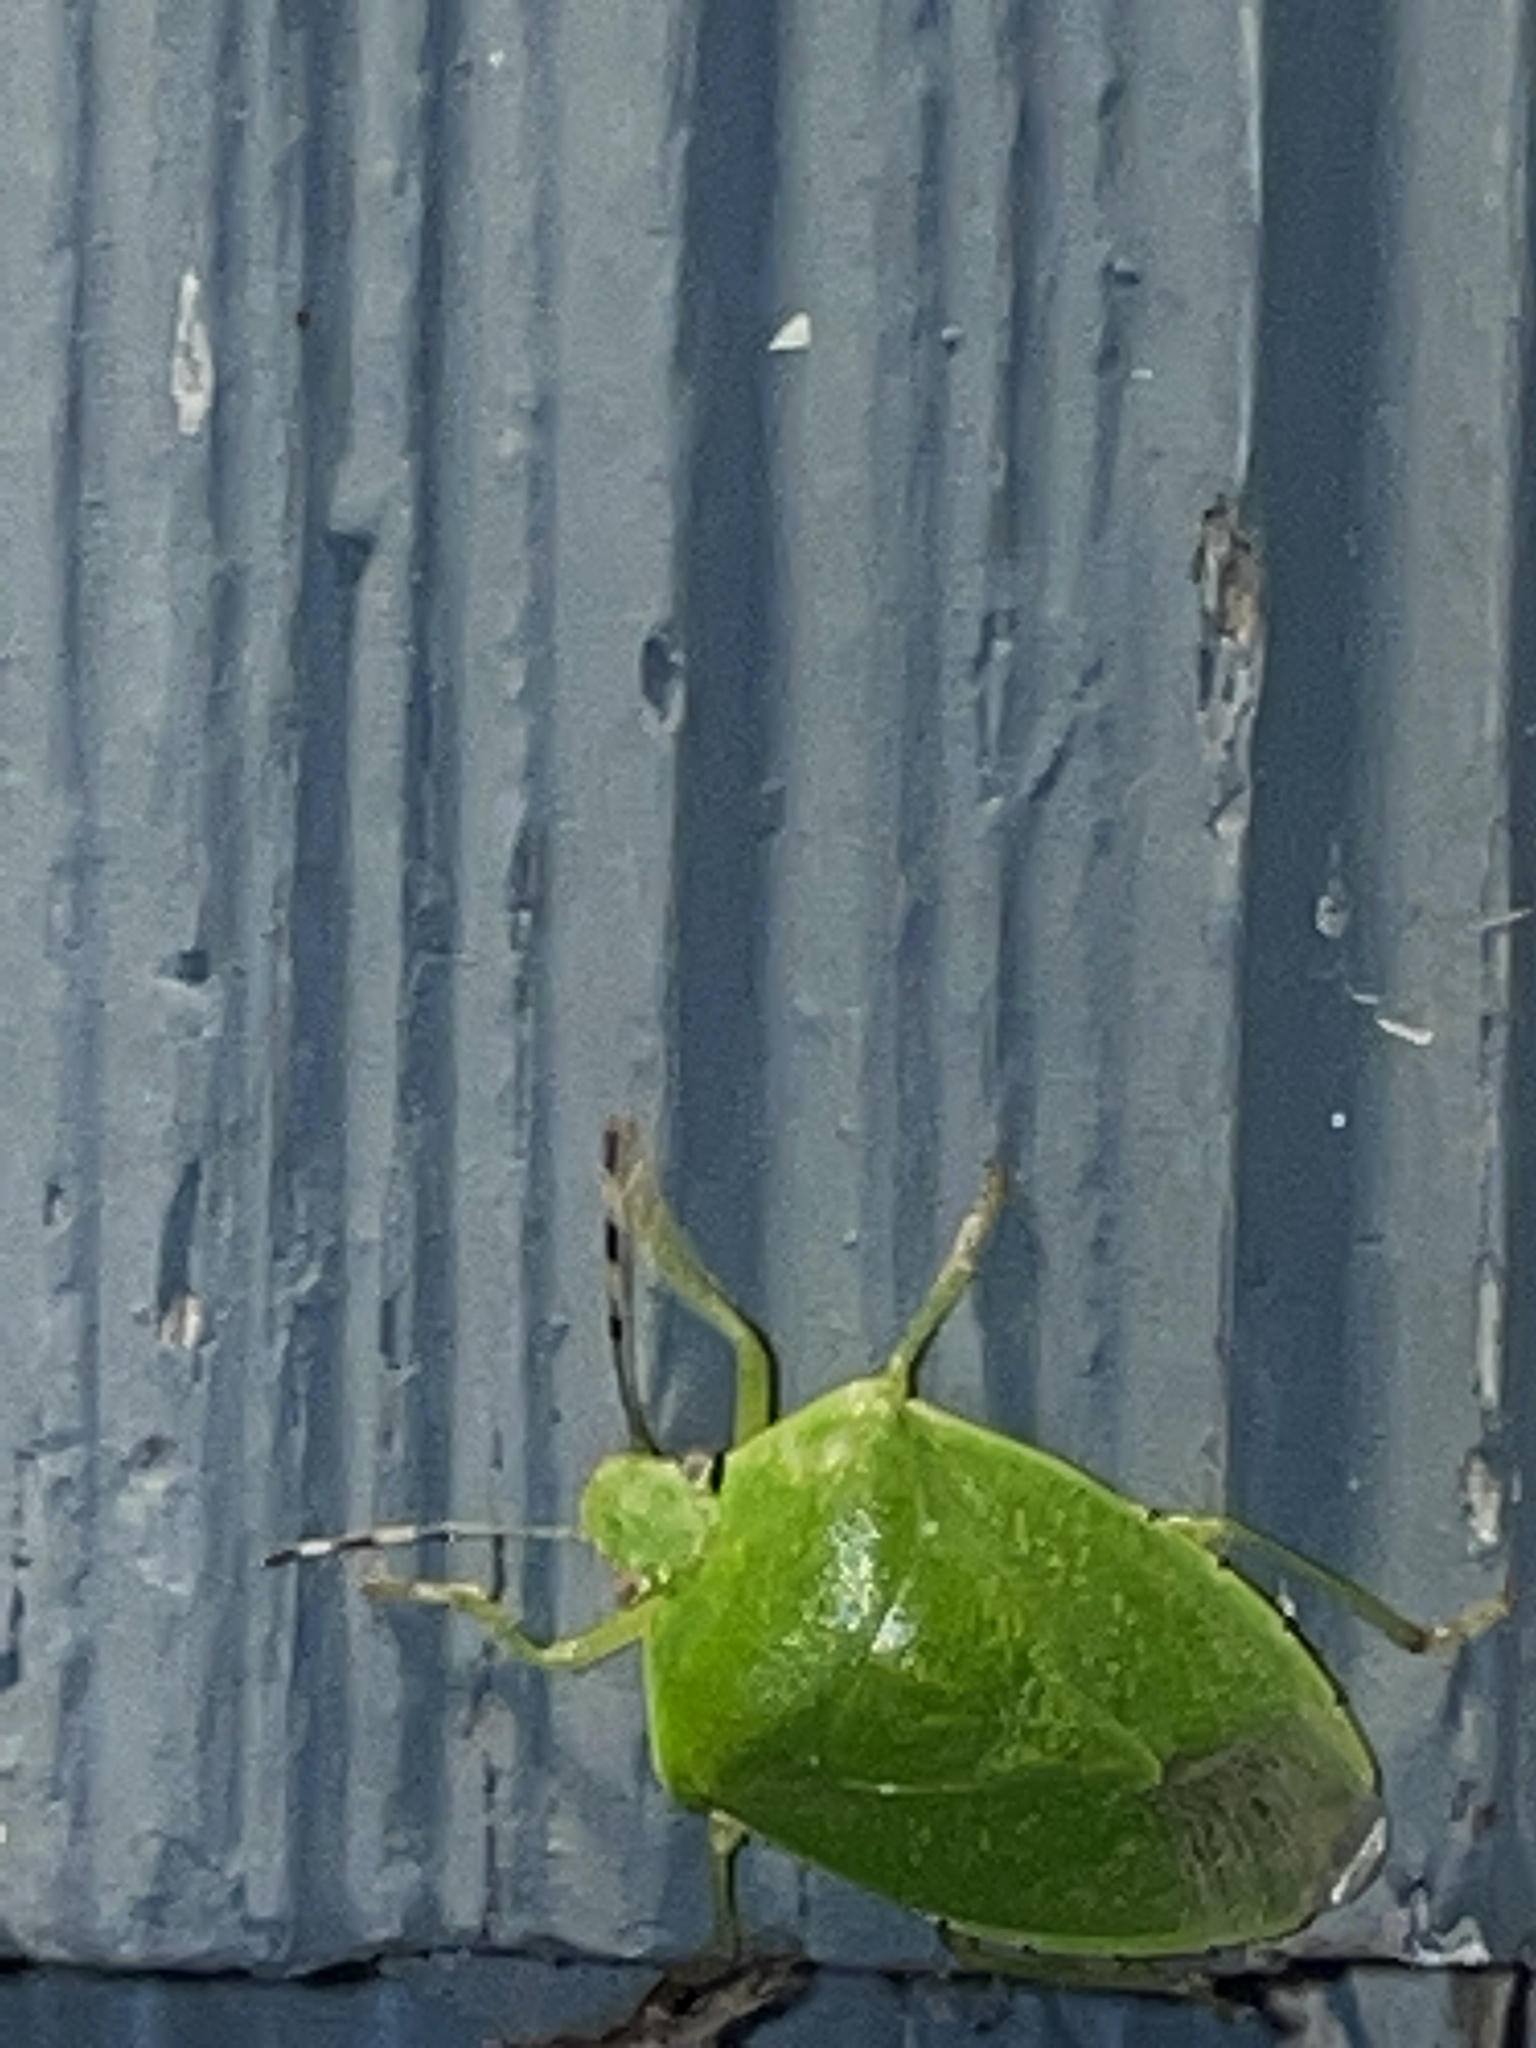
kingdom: Animalia
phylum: Arthropoda
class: Insecta
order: Hemiptera
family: Pentatomidae
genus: Chinavia
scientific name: Chinavia hilaris
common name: Green stink bug
